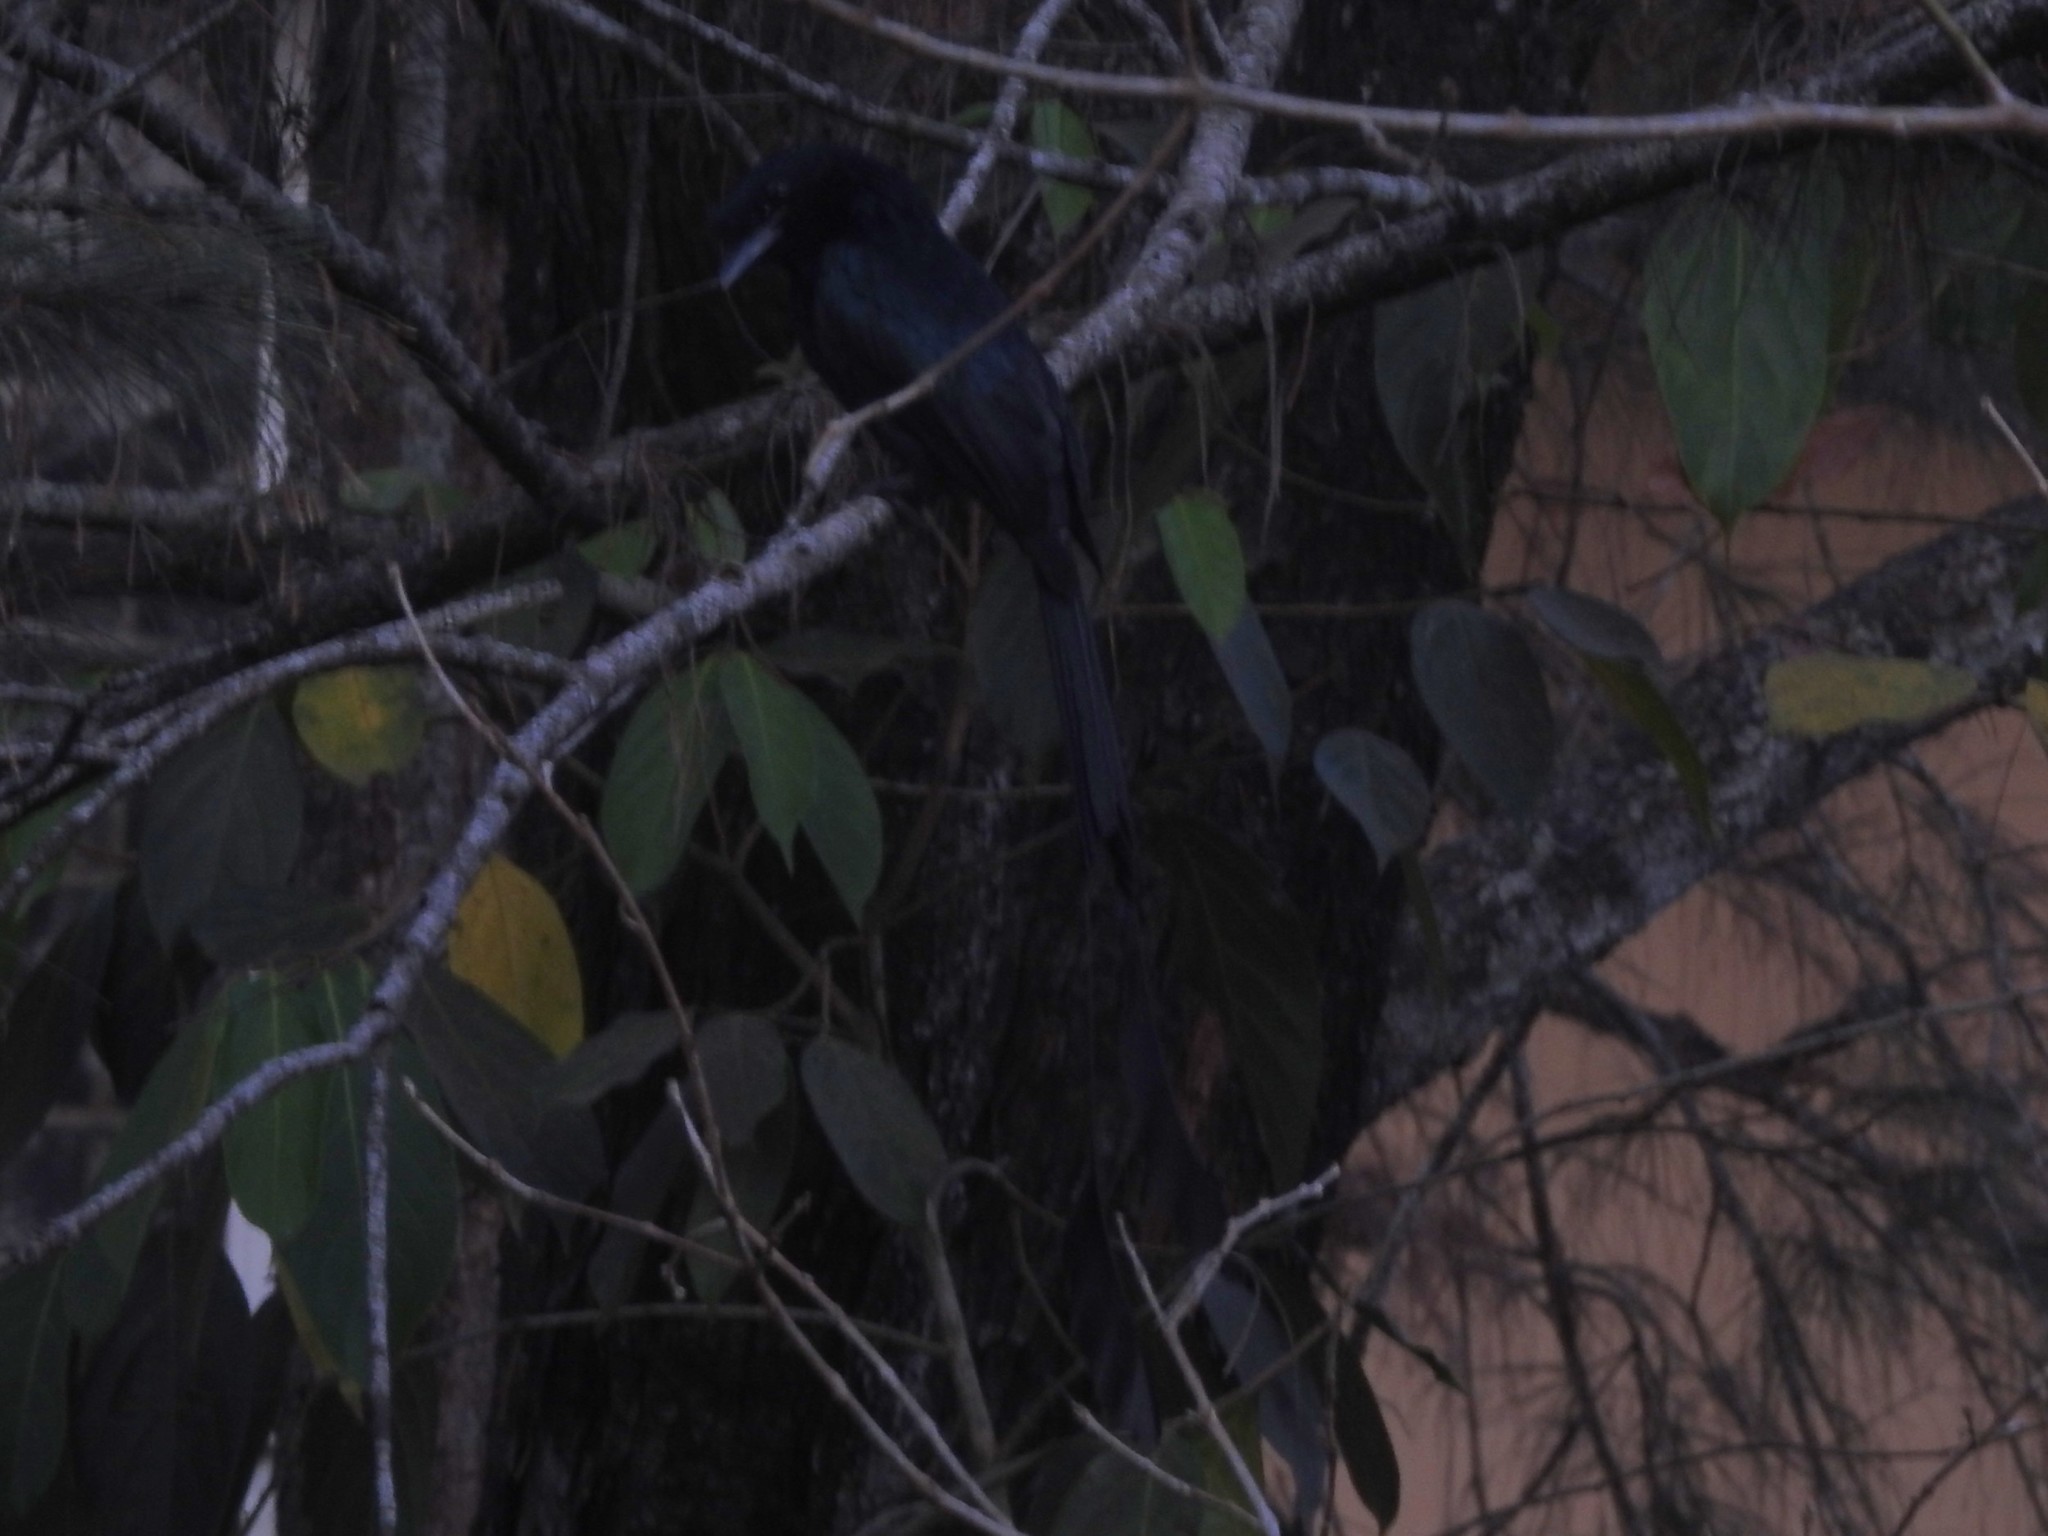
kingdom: Animalia
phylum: Chordata
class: Aves
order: Passeriformes
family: Dicruridae
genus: Dicrurus
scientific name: Dicrurus paradiseus
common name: Greater racket-tailed drongo
